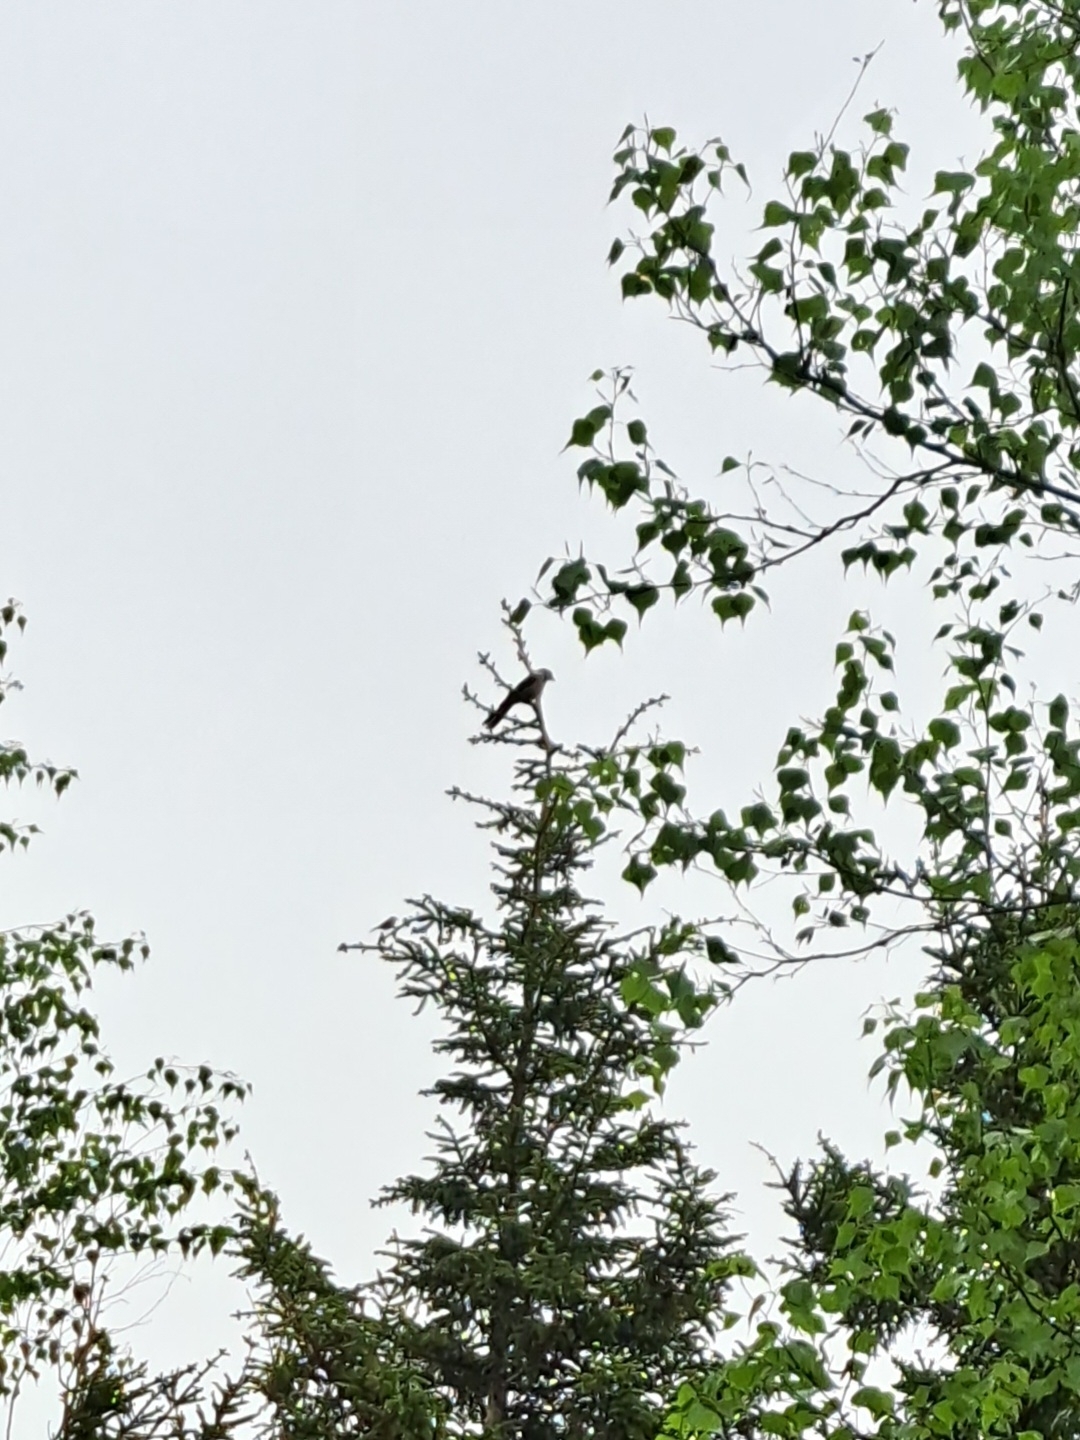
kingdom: Animalia
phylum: Chordata
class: Aves
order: Passeriformes
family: Corvidae
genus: Perisoreus
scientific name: Perisoreus canadensis
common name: Gray jay
